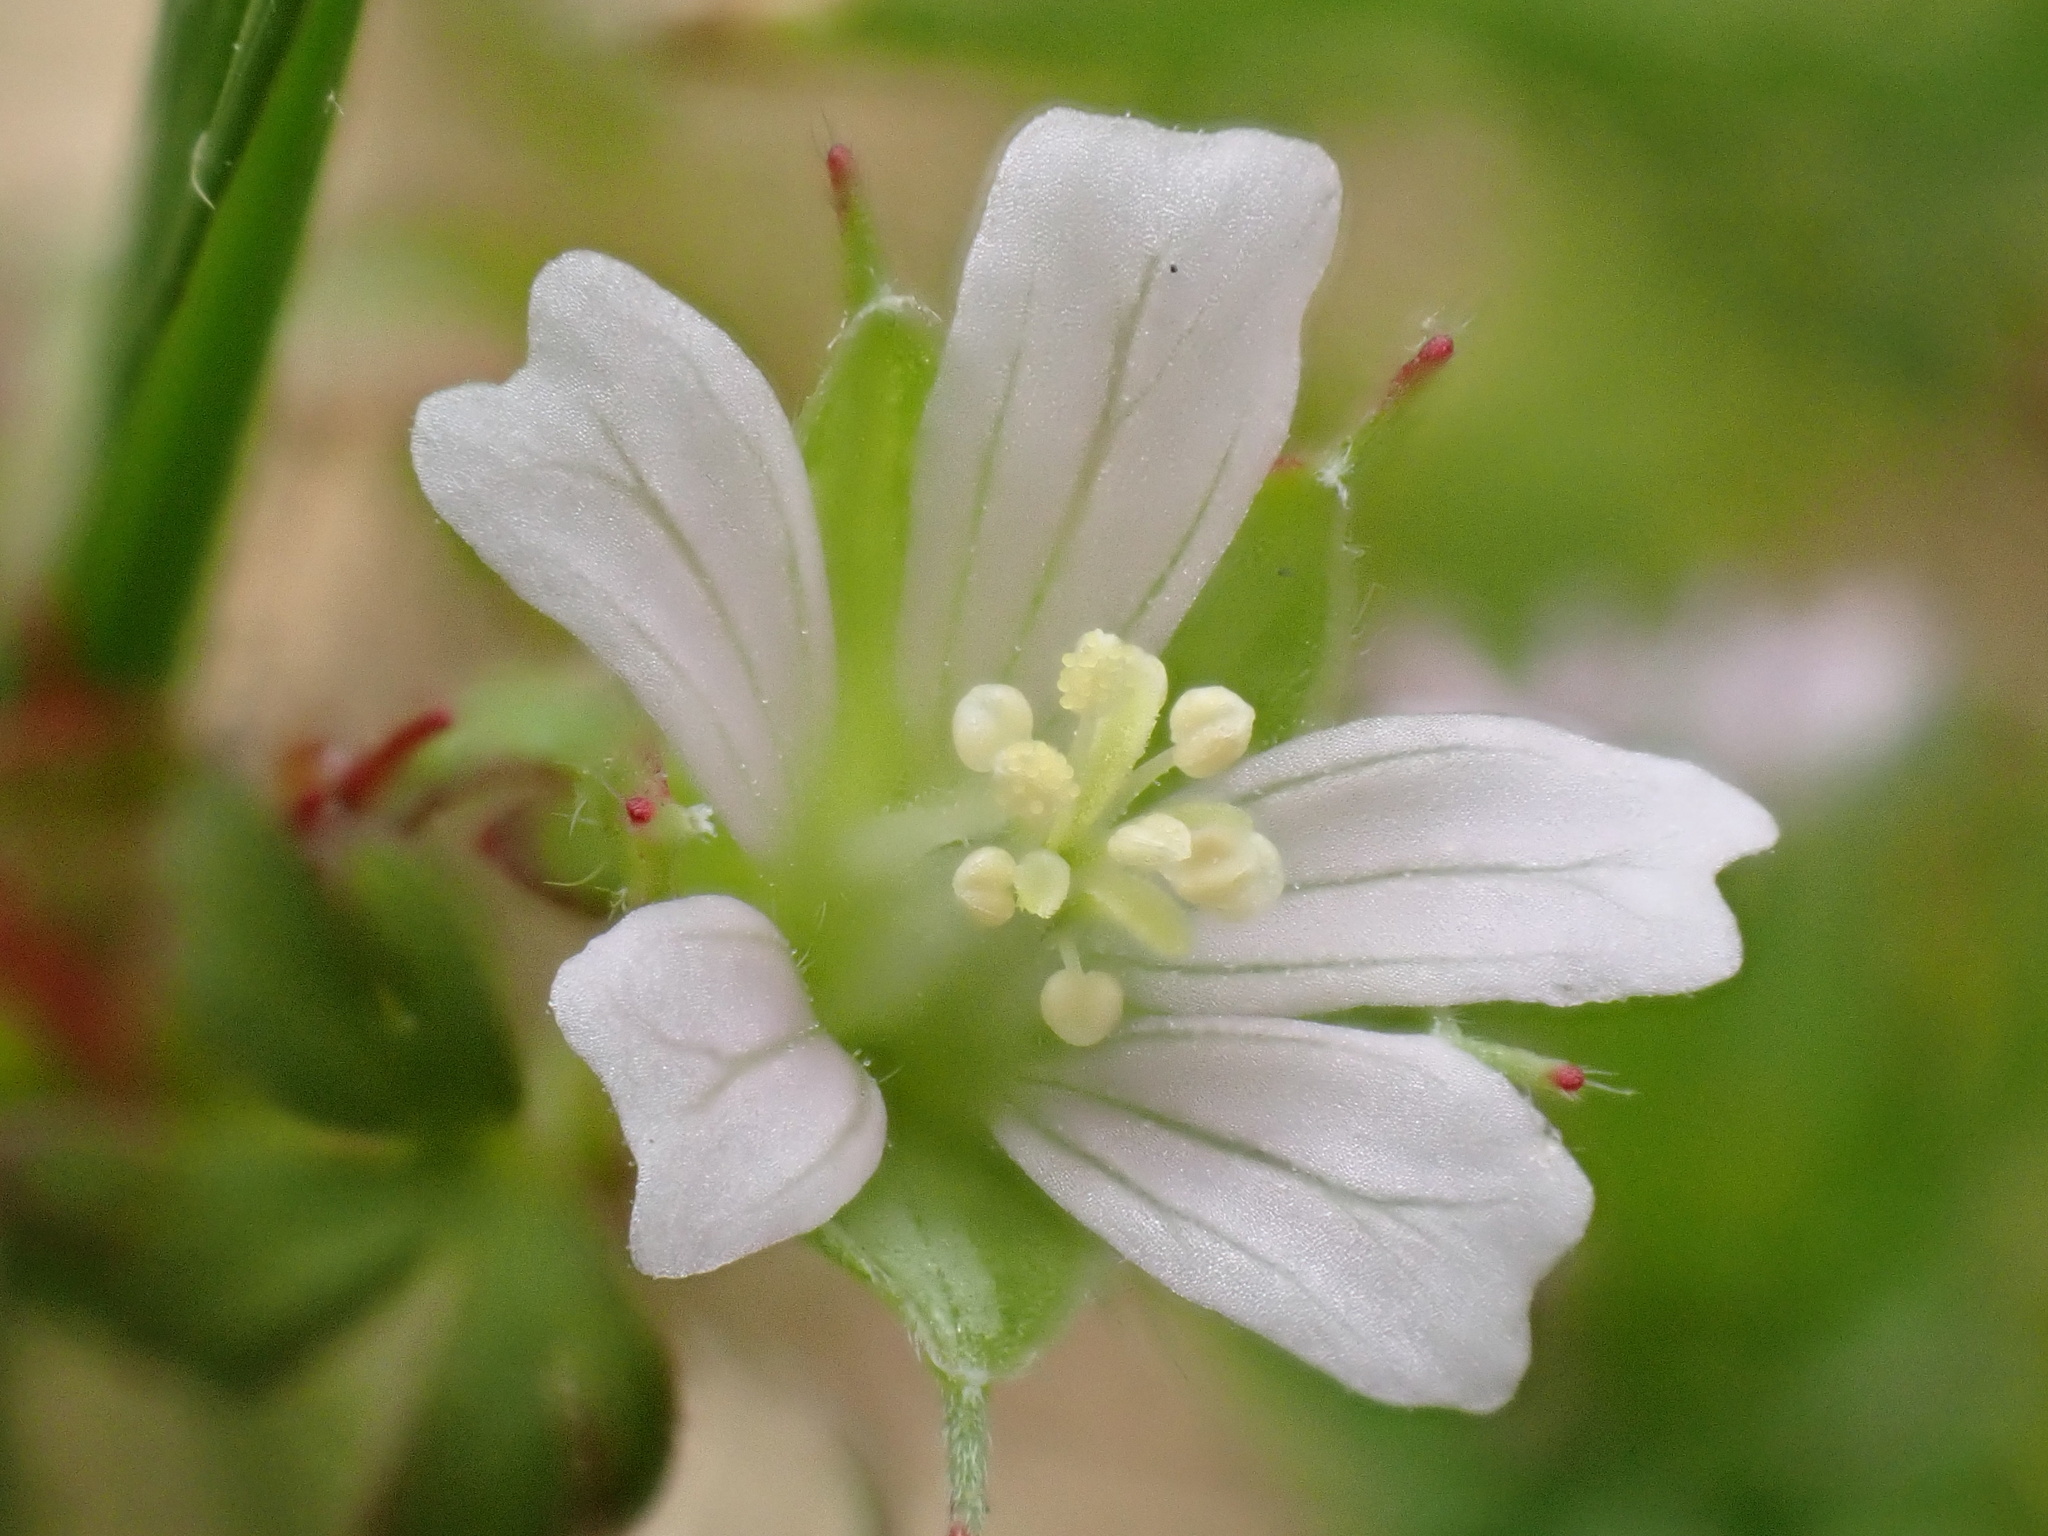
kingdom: Plantae
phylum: Tracheophyta
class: Magnoliopsida
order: Geraniales
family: Geraniaceae
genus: Geranium
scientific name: Geranium carolinianum
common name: Carolina crane's-bill
